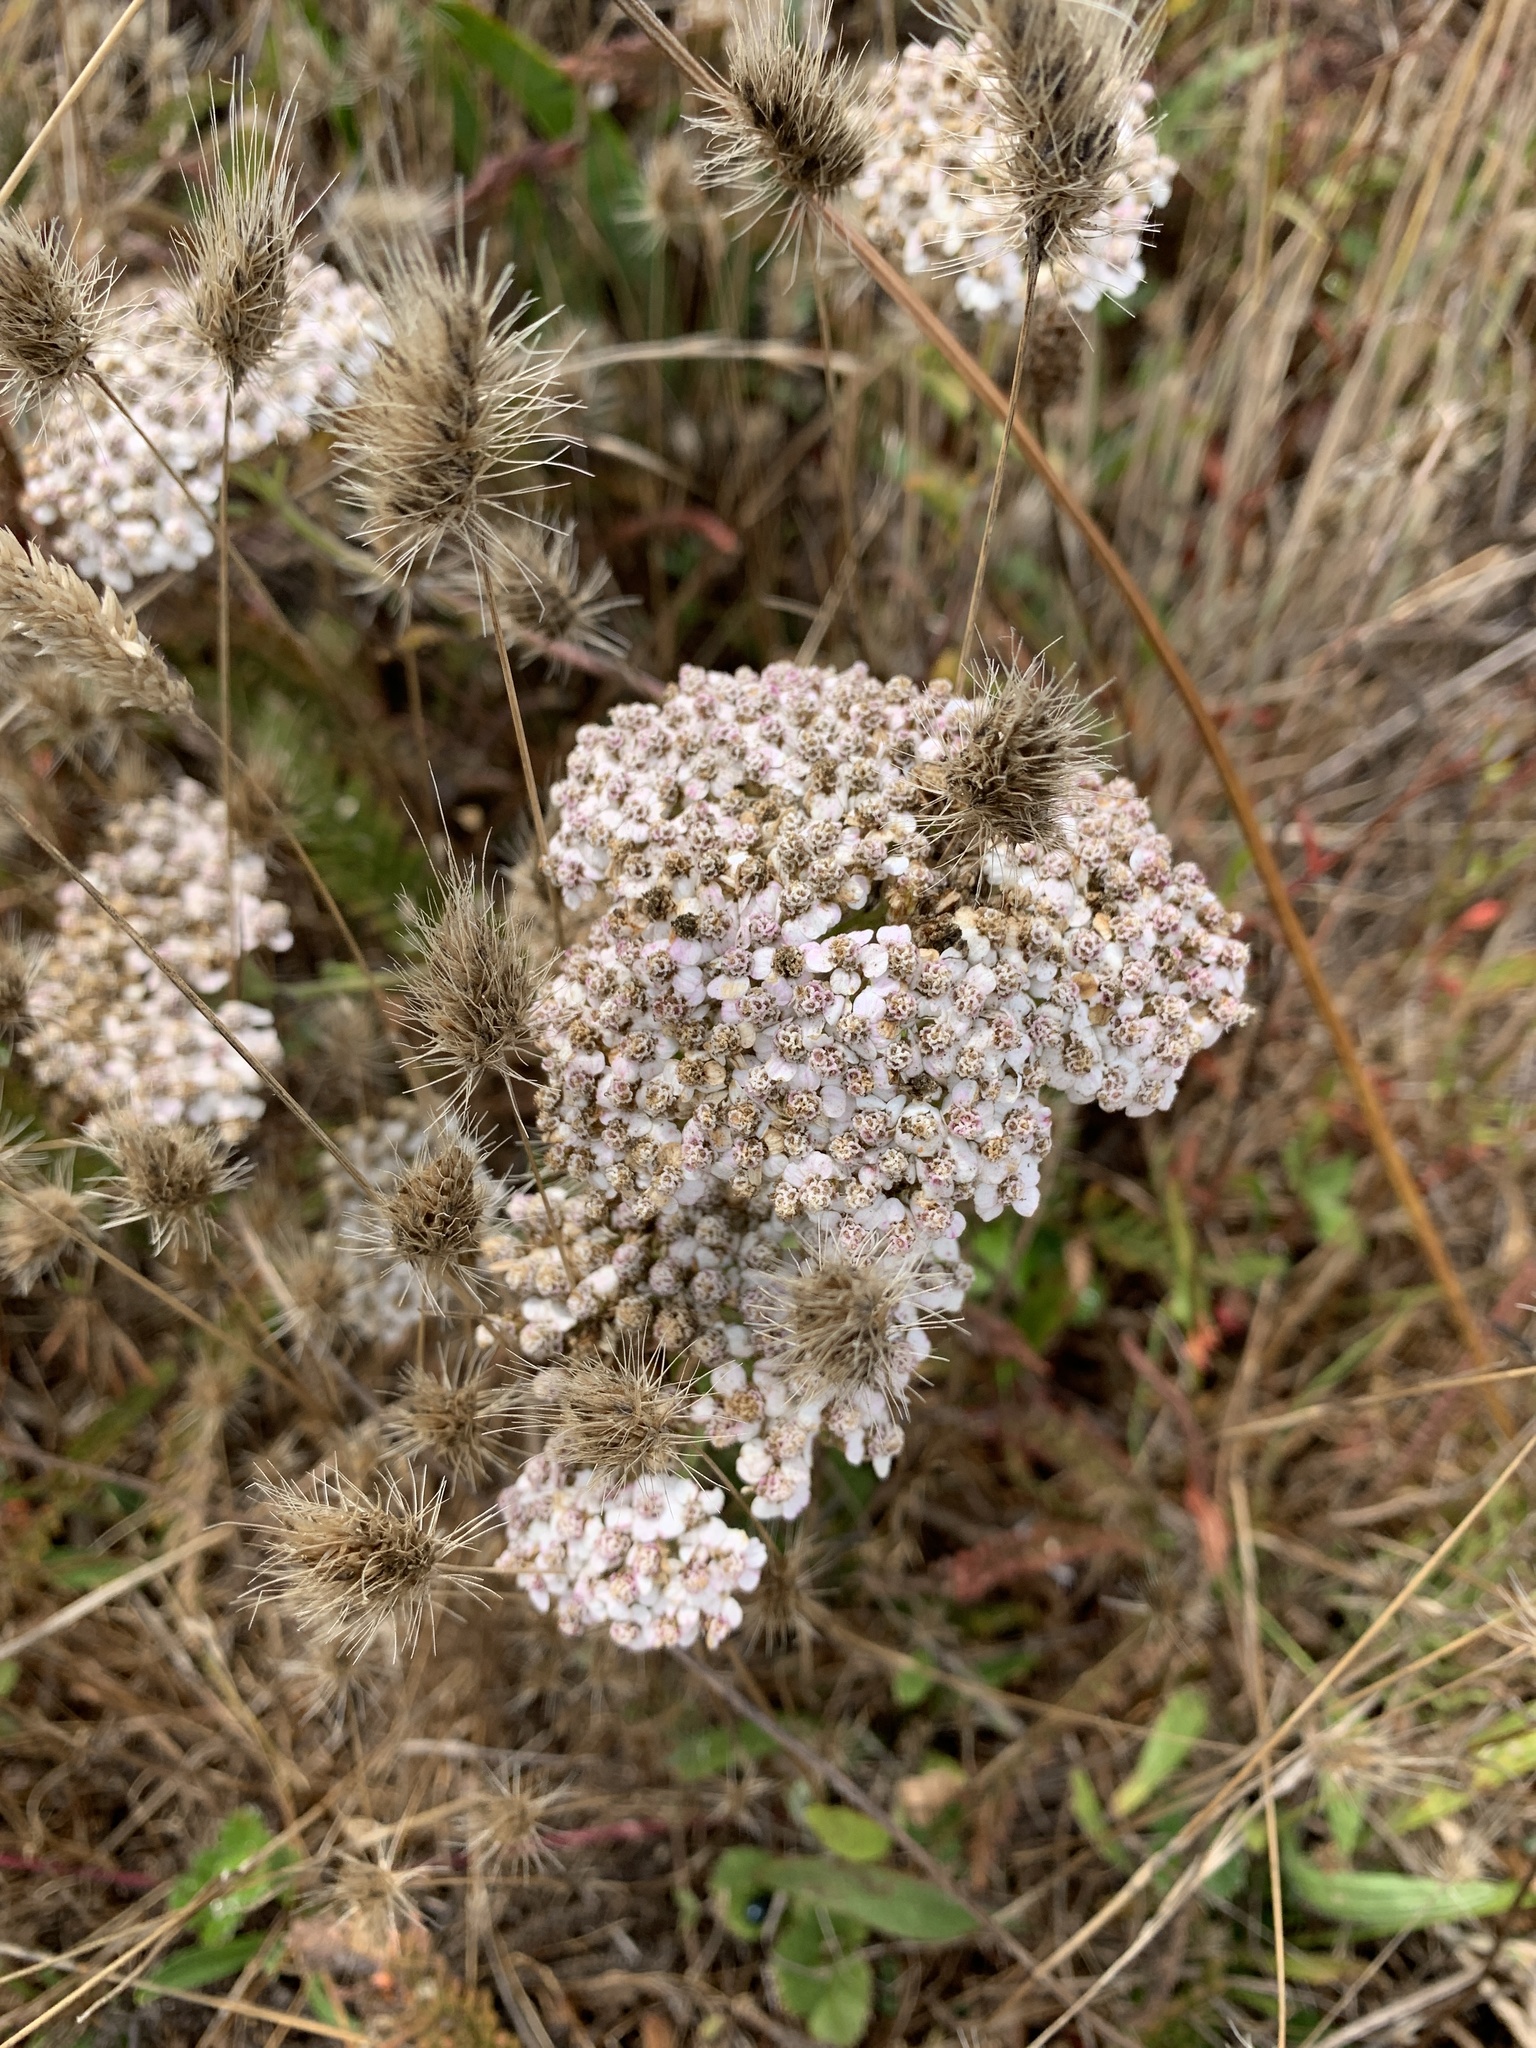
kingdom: Plantae
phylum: Tracheophyta
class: Magnoliopsida
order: Asterales
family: Asteraceae
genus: Achillea
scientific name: Achillea millefolium
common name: Yarrow
